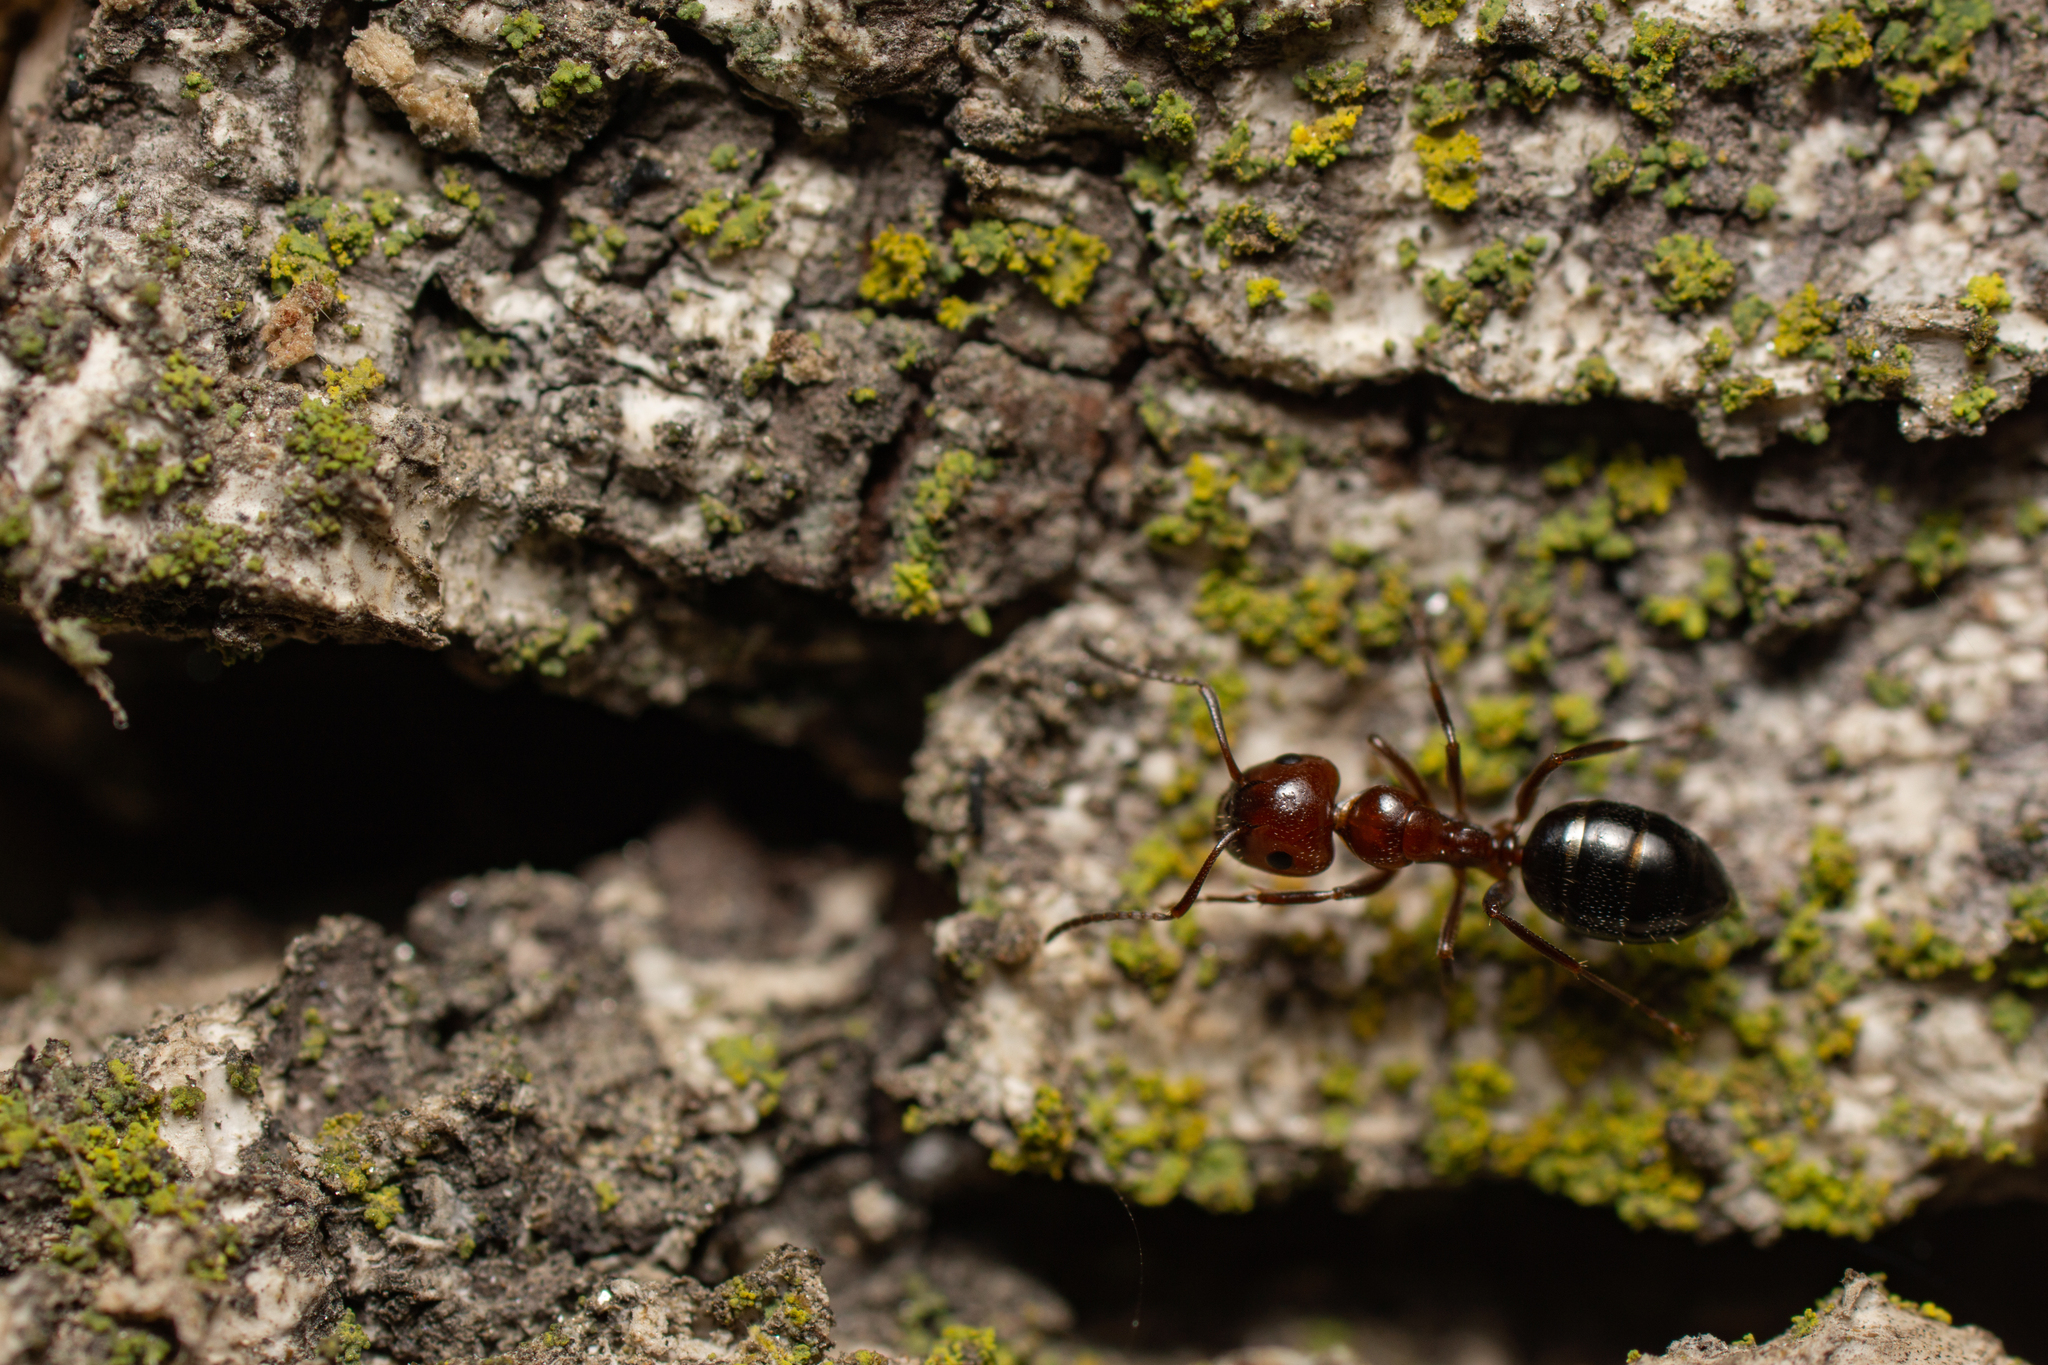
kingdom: Animalia
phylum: Arthropoda
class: Insecta
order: Hymenoptera
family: Formicidae
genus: Camponotus
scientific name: Camponotus lateralis
